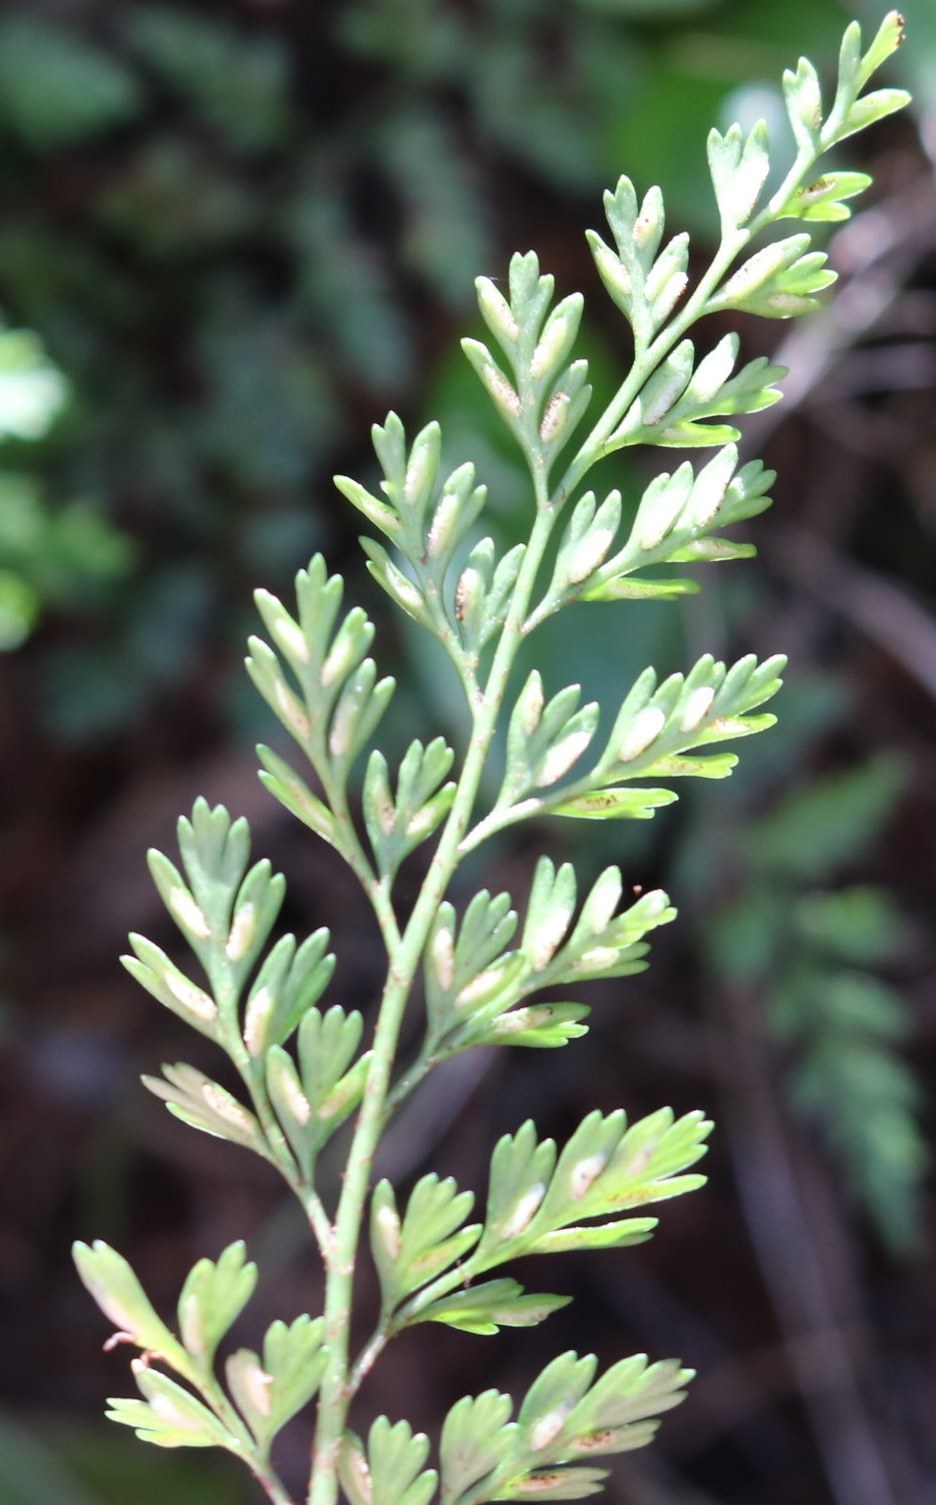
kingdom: Plantae
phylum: Tracheophyta
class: Polypodiopsida
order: Polypodiales
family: Aspleniaceae
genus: Asplenium
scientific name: Asplenium hookerianum
